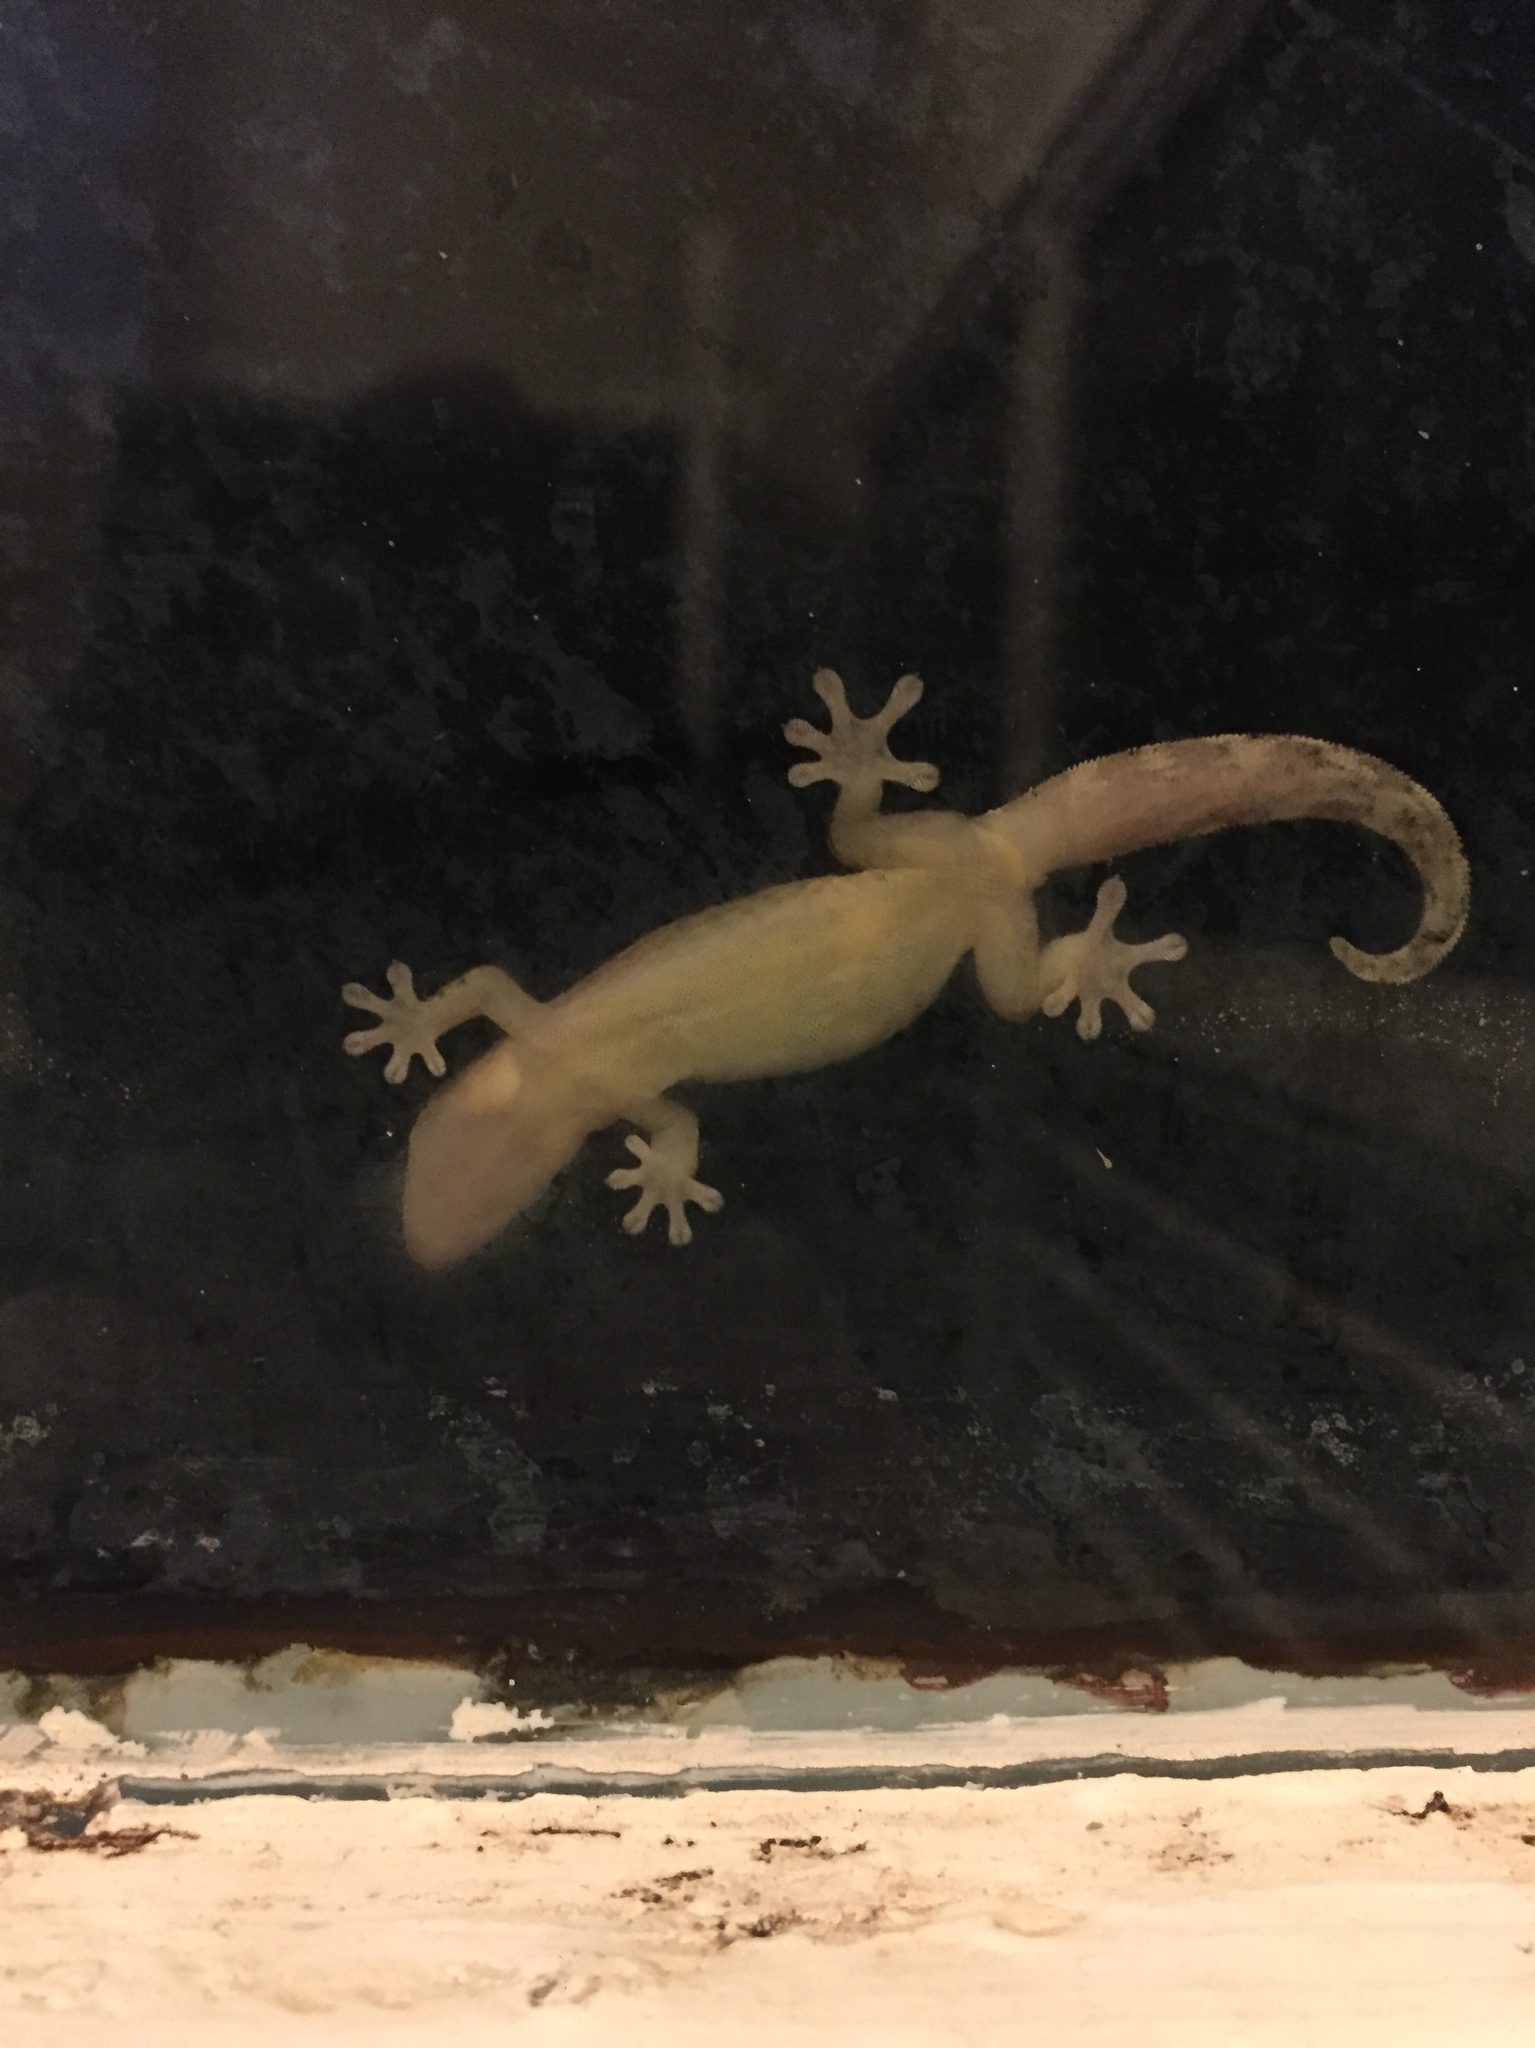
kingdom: Animalia
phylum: Chordata
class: Squamata
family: Gekkonidae
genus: Lepidodactylus
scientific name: Lepidodactylus lugubris
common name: Mourning gecko
